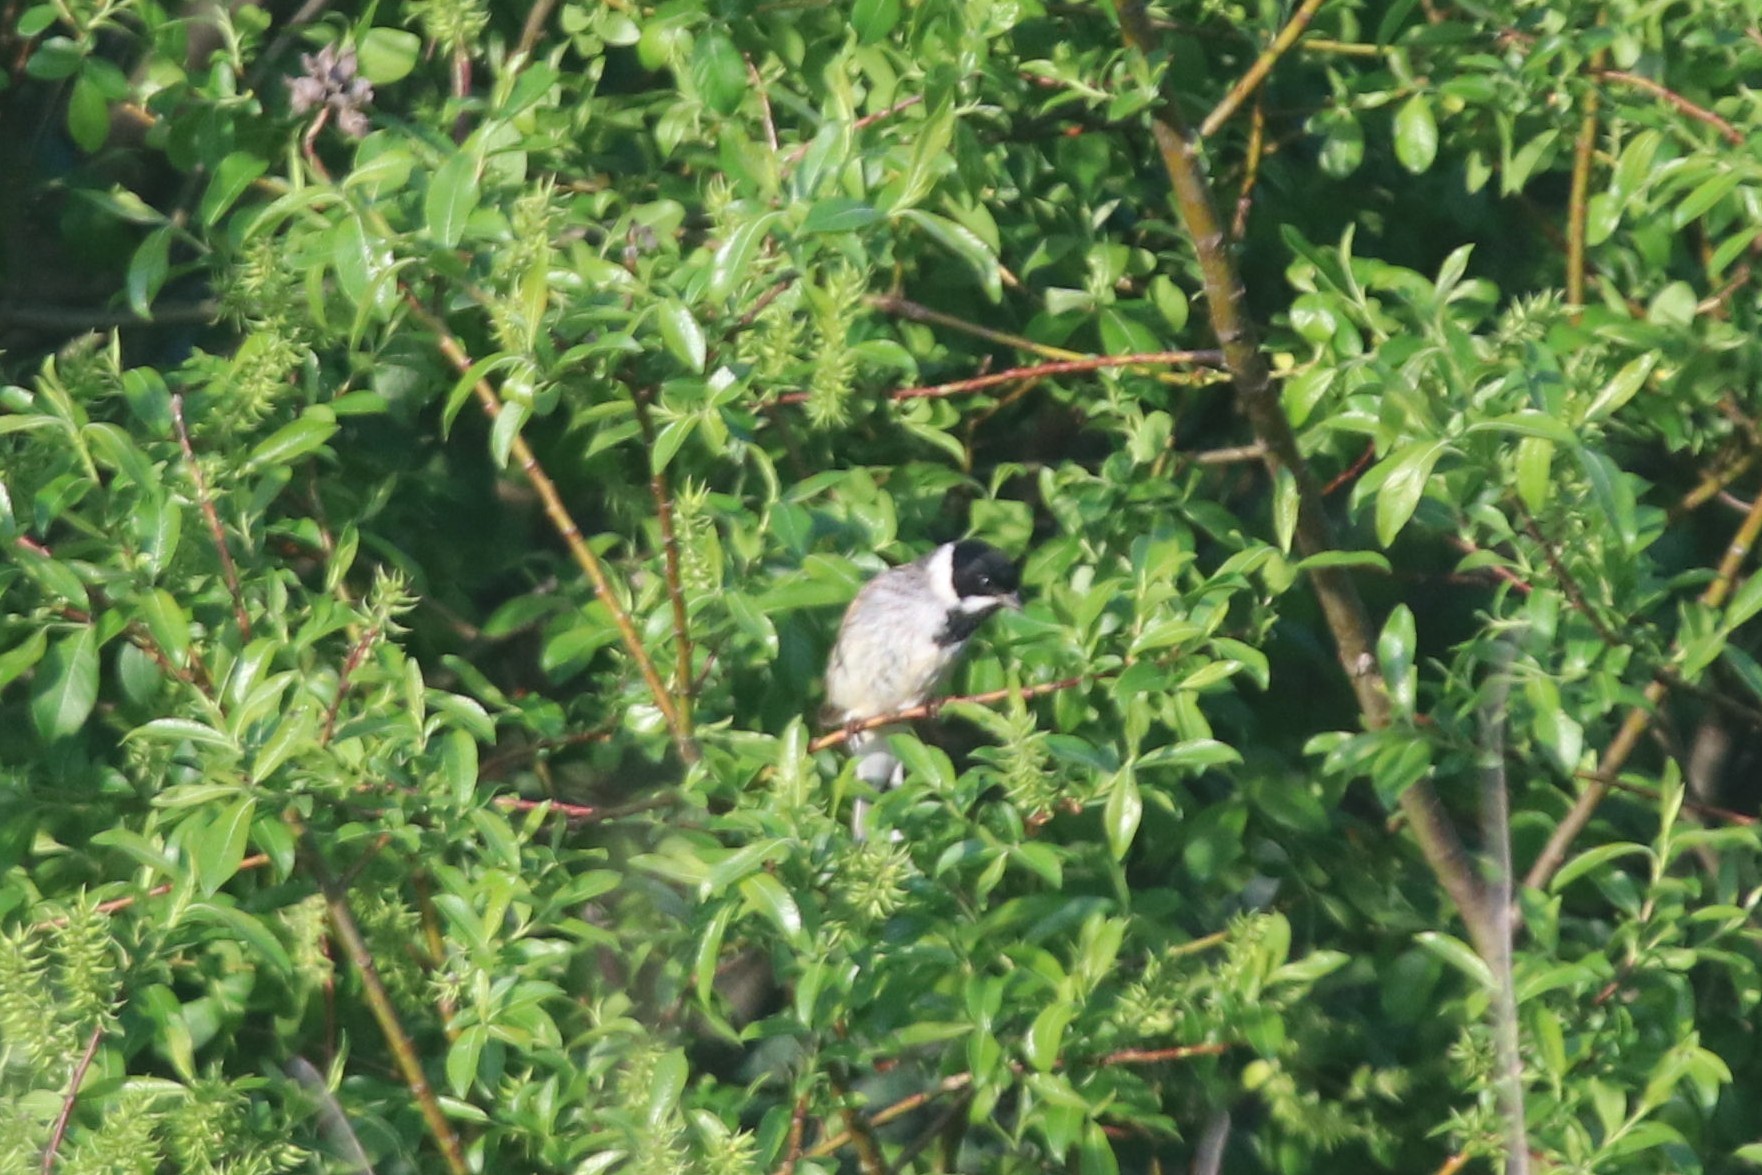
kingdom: Animalia
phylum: Chordata
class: Aves
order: Passeriformes
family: Emberizidae
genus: Emberiza
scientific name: Emberiza schoeniclus
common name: Reed bunting
